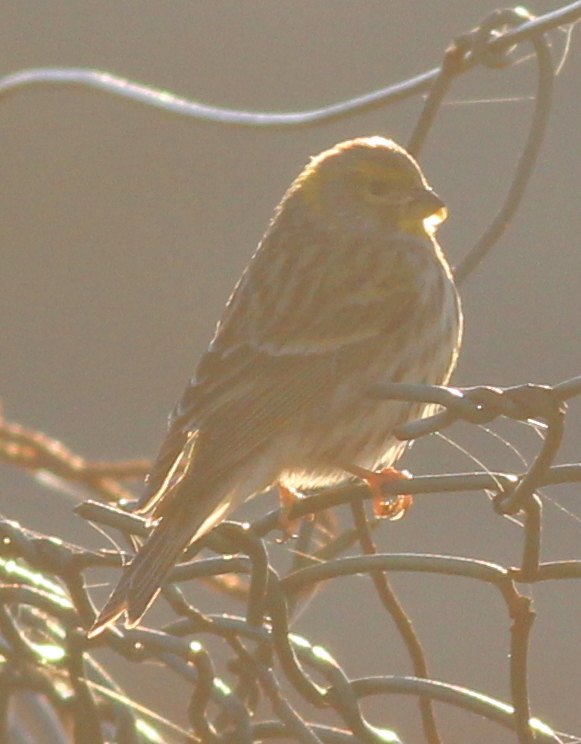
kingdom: Animalia
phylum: Chordata
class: Aves
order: Passeriformes
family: Fringillidae
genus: Serinus
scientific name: Serinus serinus
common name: European serin
